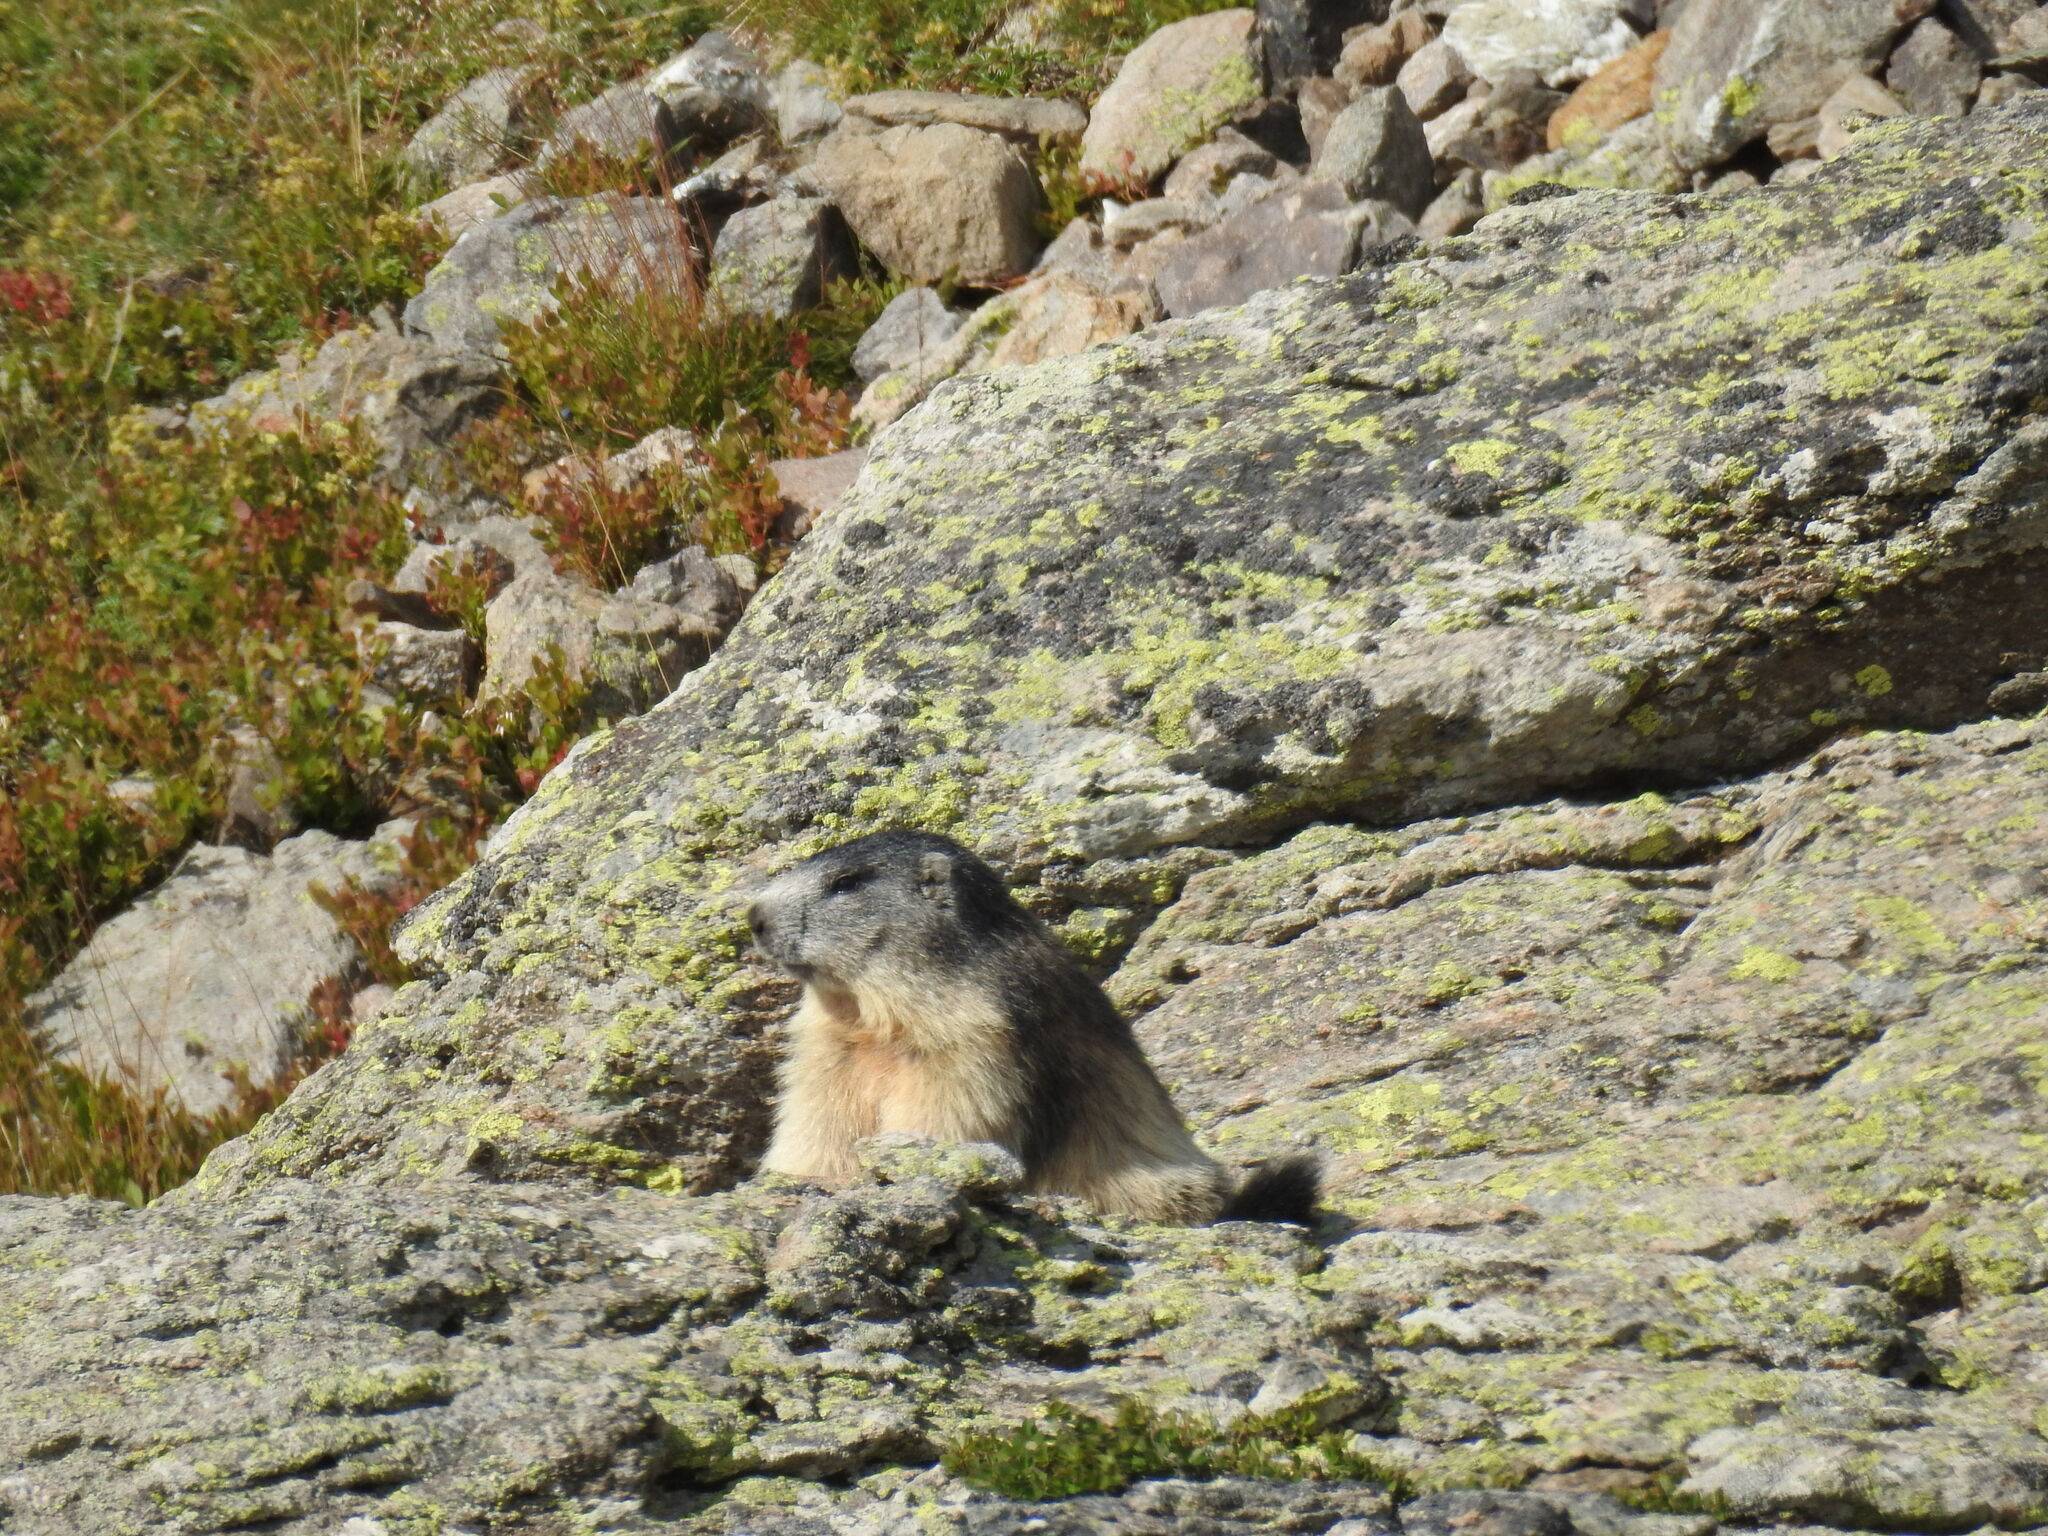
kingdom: Animalia
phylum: Chordata
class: Mammalia
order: Rodentia
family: Sciuridae
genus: Marmota
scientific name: Marmota marmota
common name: Alpine marmot
